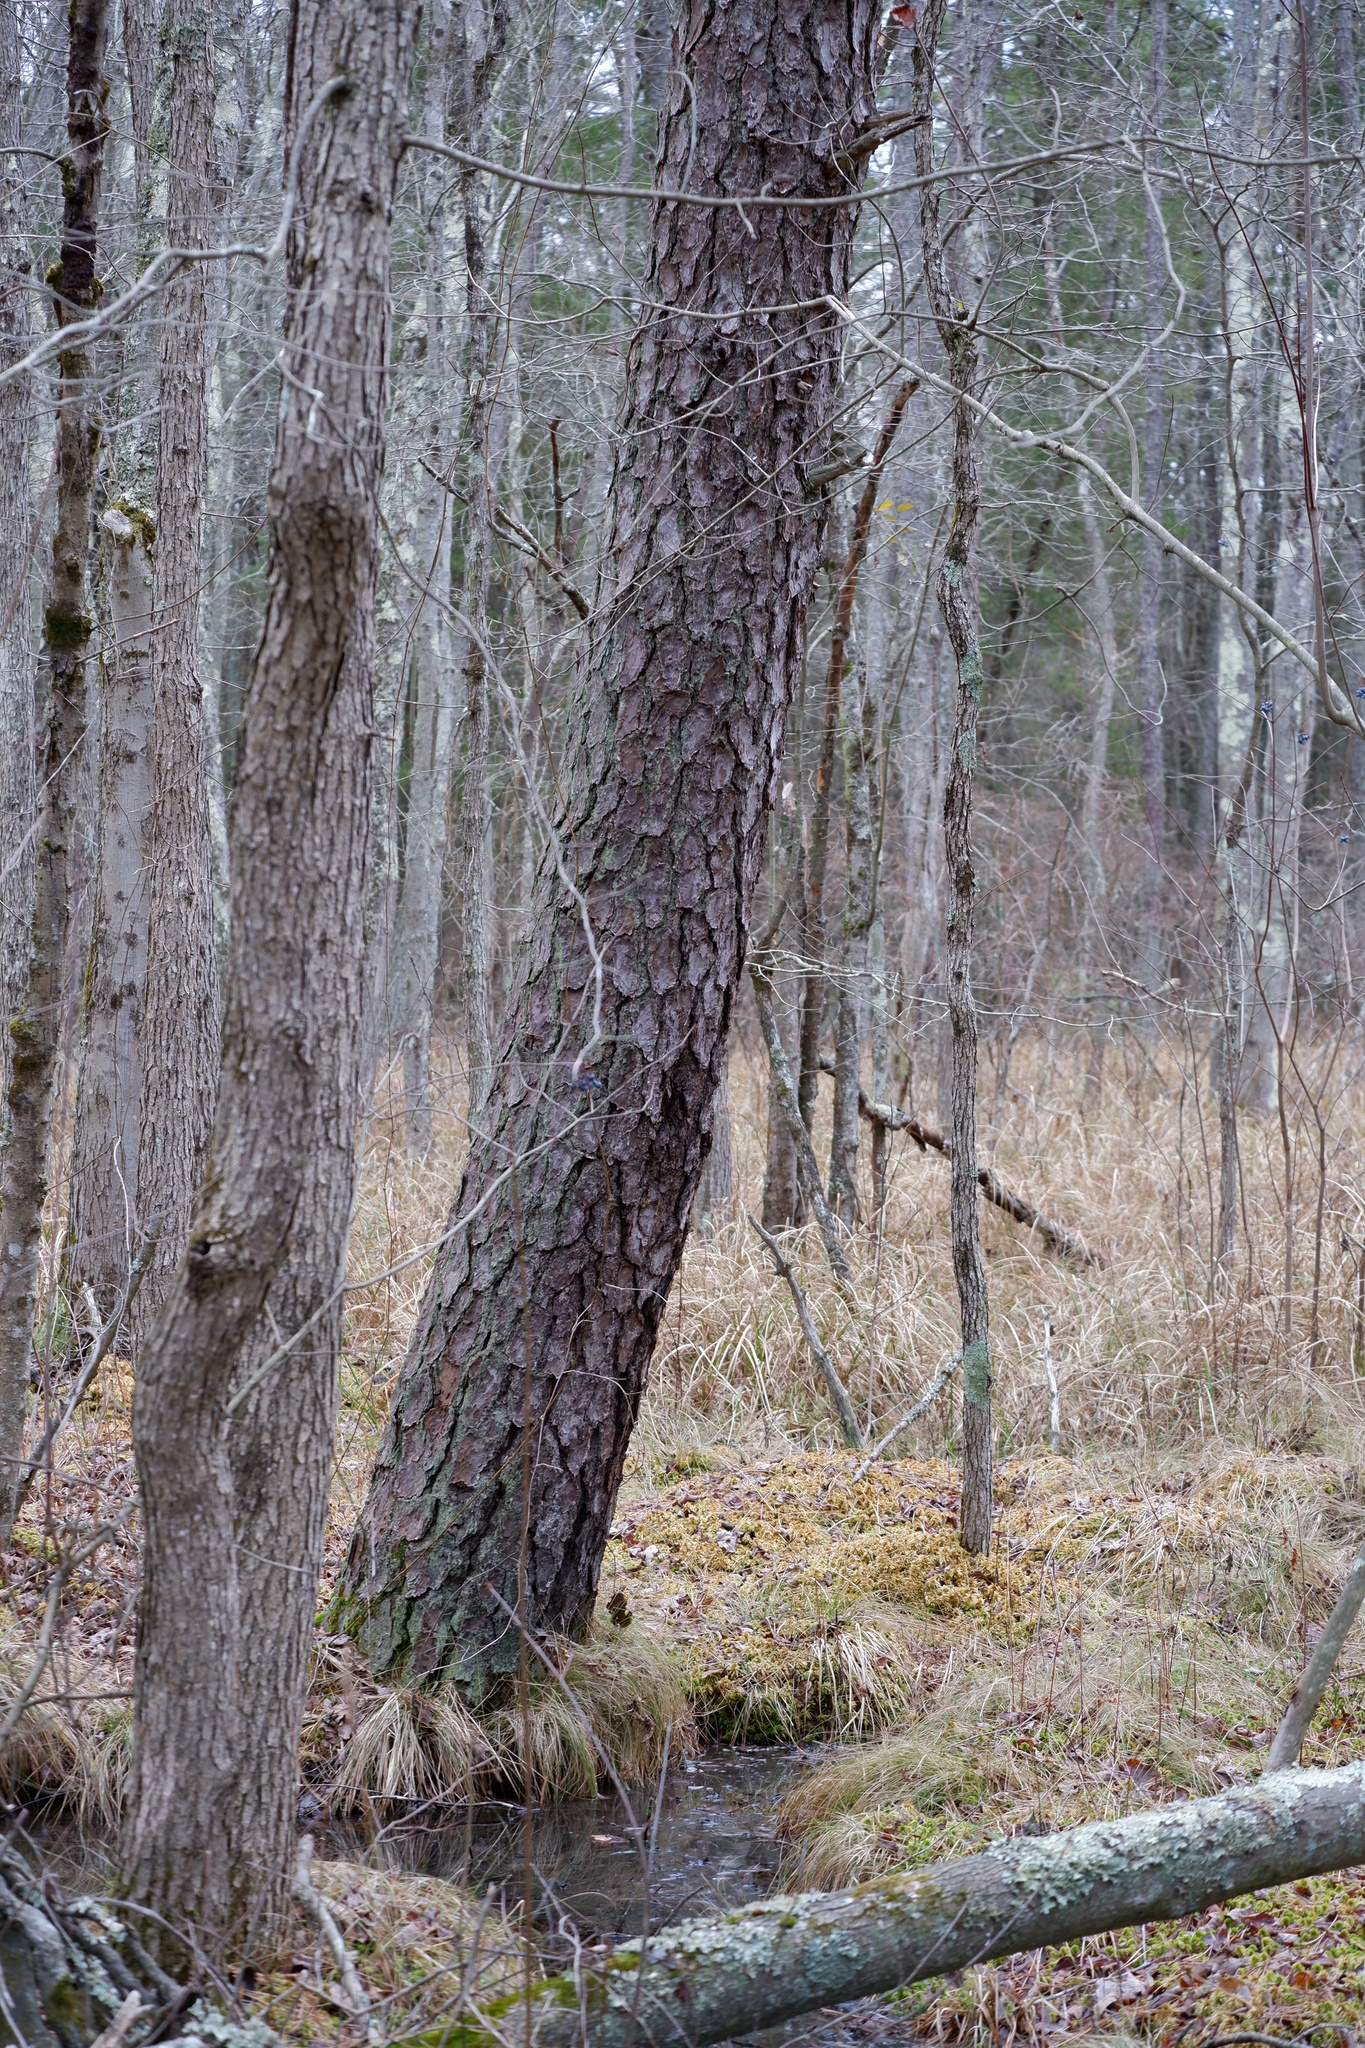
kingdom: Plantae
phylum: Tracheophyta
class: Pinopsida
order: Pinales
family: Pinaceae
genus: Pinus
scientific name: Pinus serotina
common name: Marsh pine
